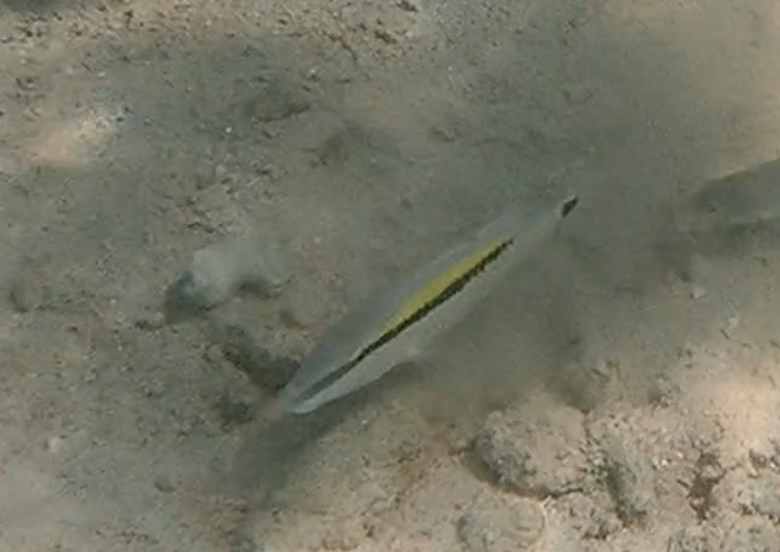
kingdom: Animalia
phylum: Chordata
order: Perciformes
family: Mullidae
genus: Parupeneus
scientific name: Parupeneus barberinus
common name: Dash-and-dot goatfish
